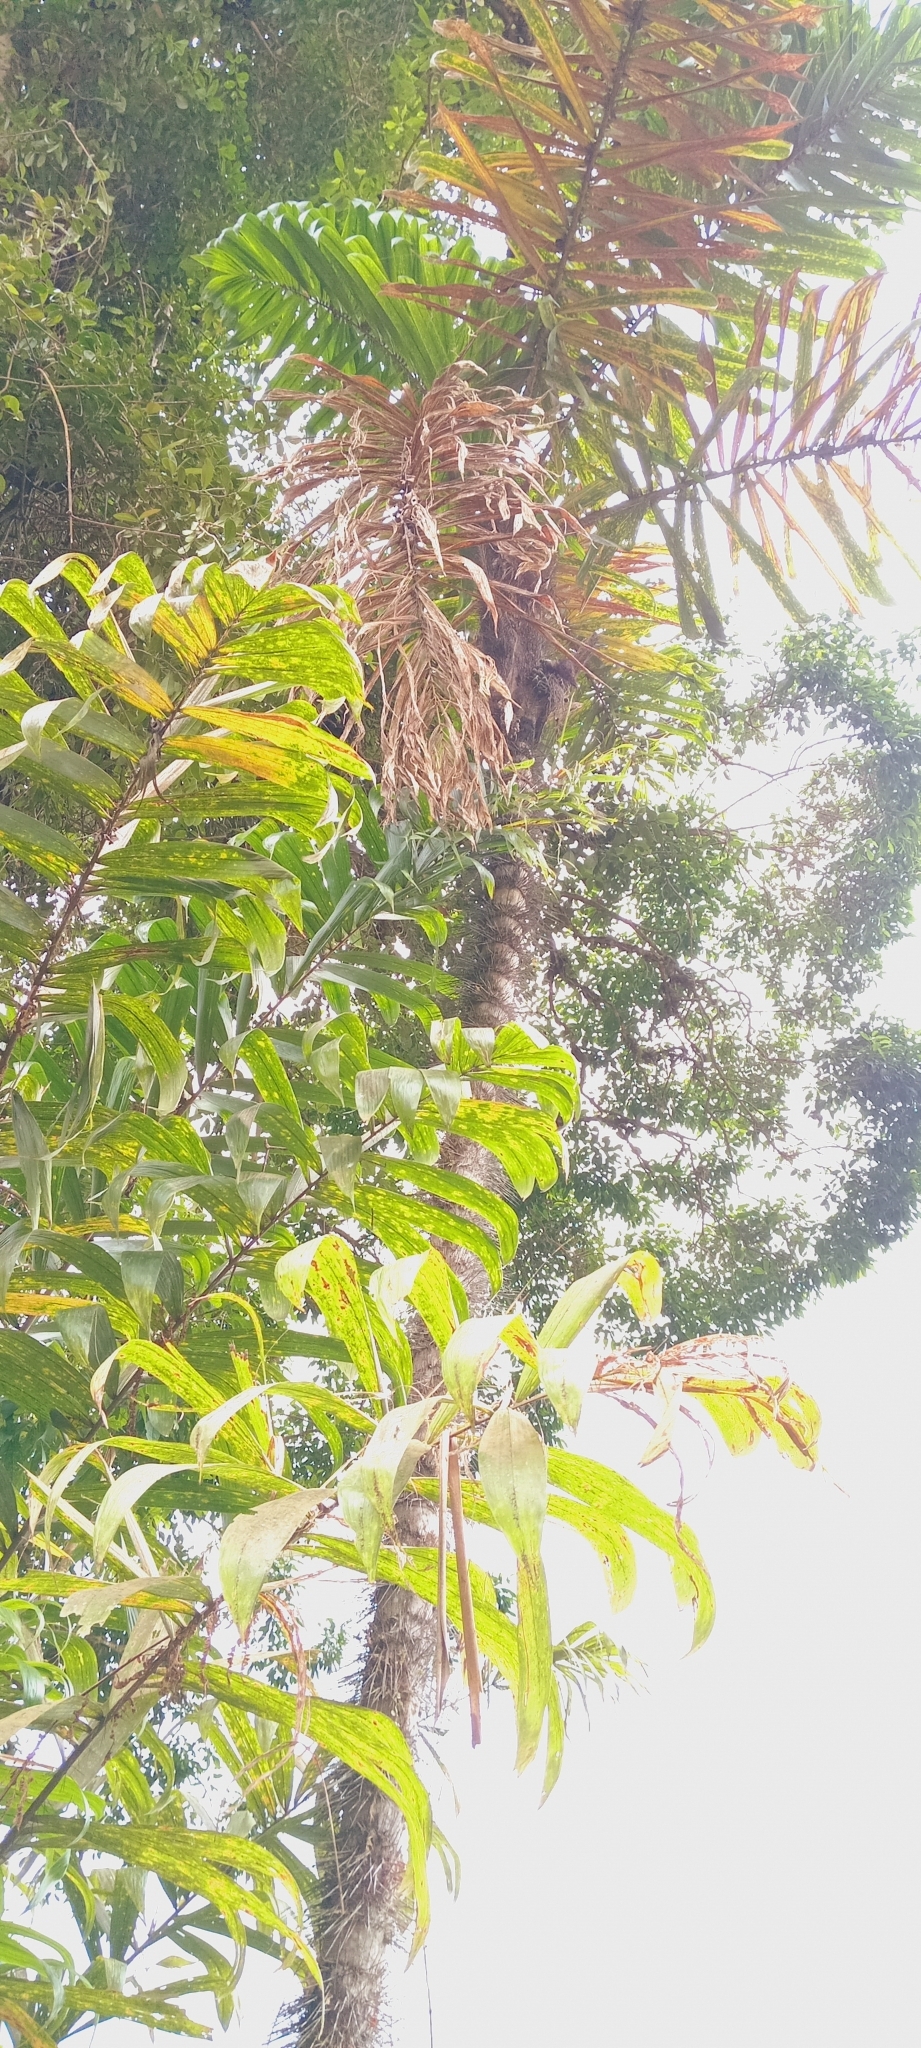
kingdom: Plantae
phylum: Tracheophyta
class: Liliopsida
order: Arecales
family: Arecaceae
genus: Bactris
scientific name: Bactris setulosa
